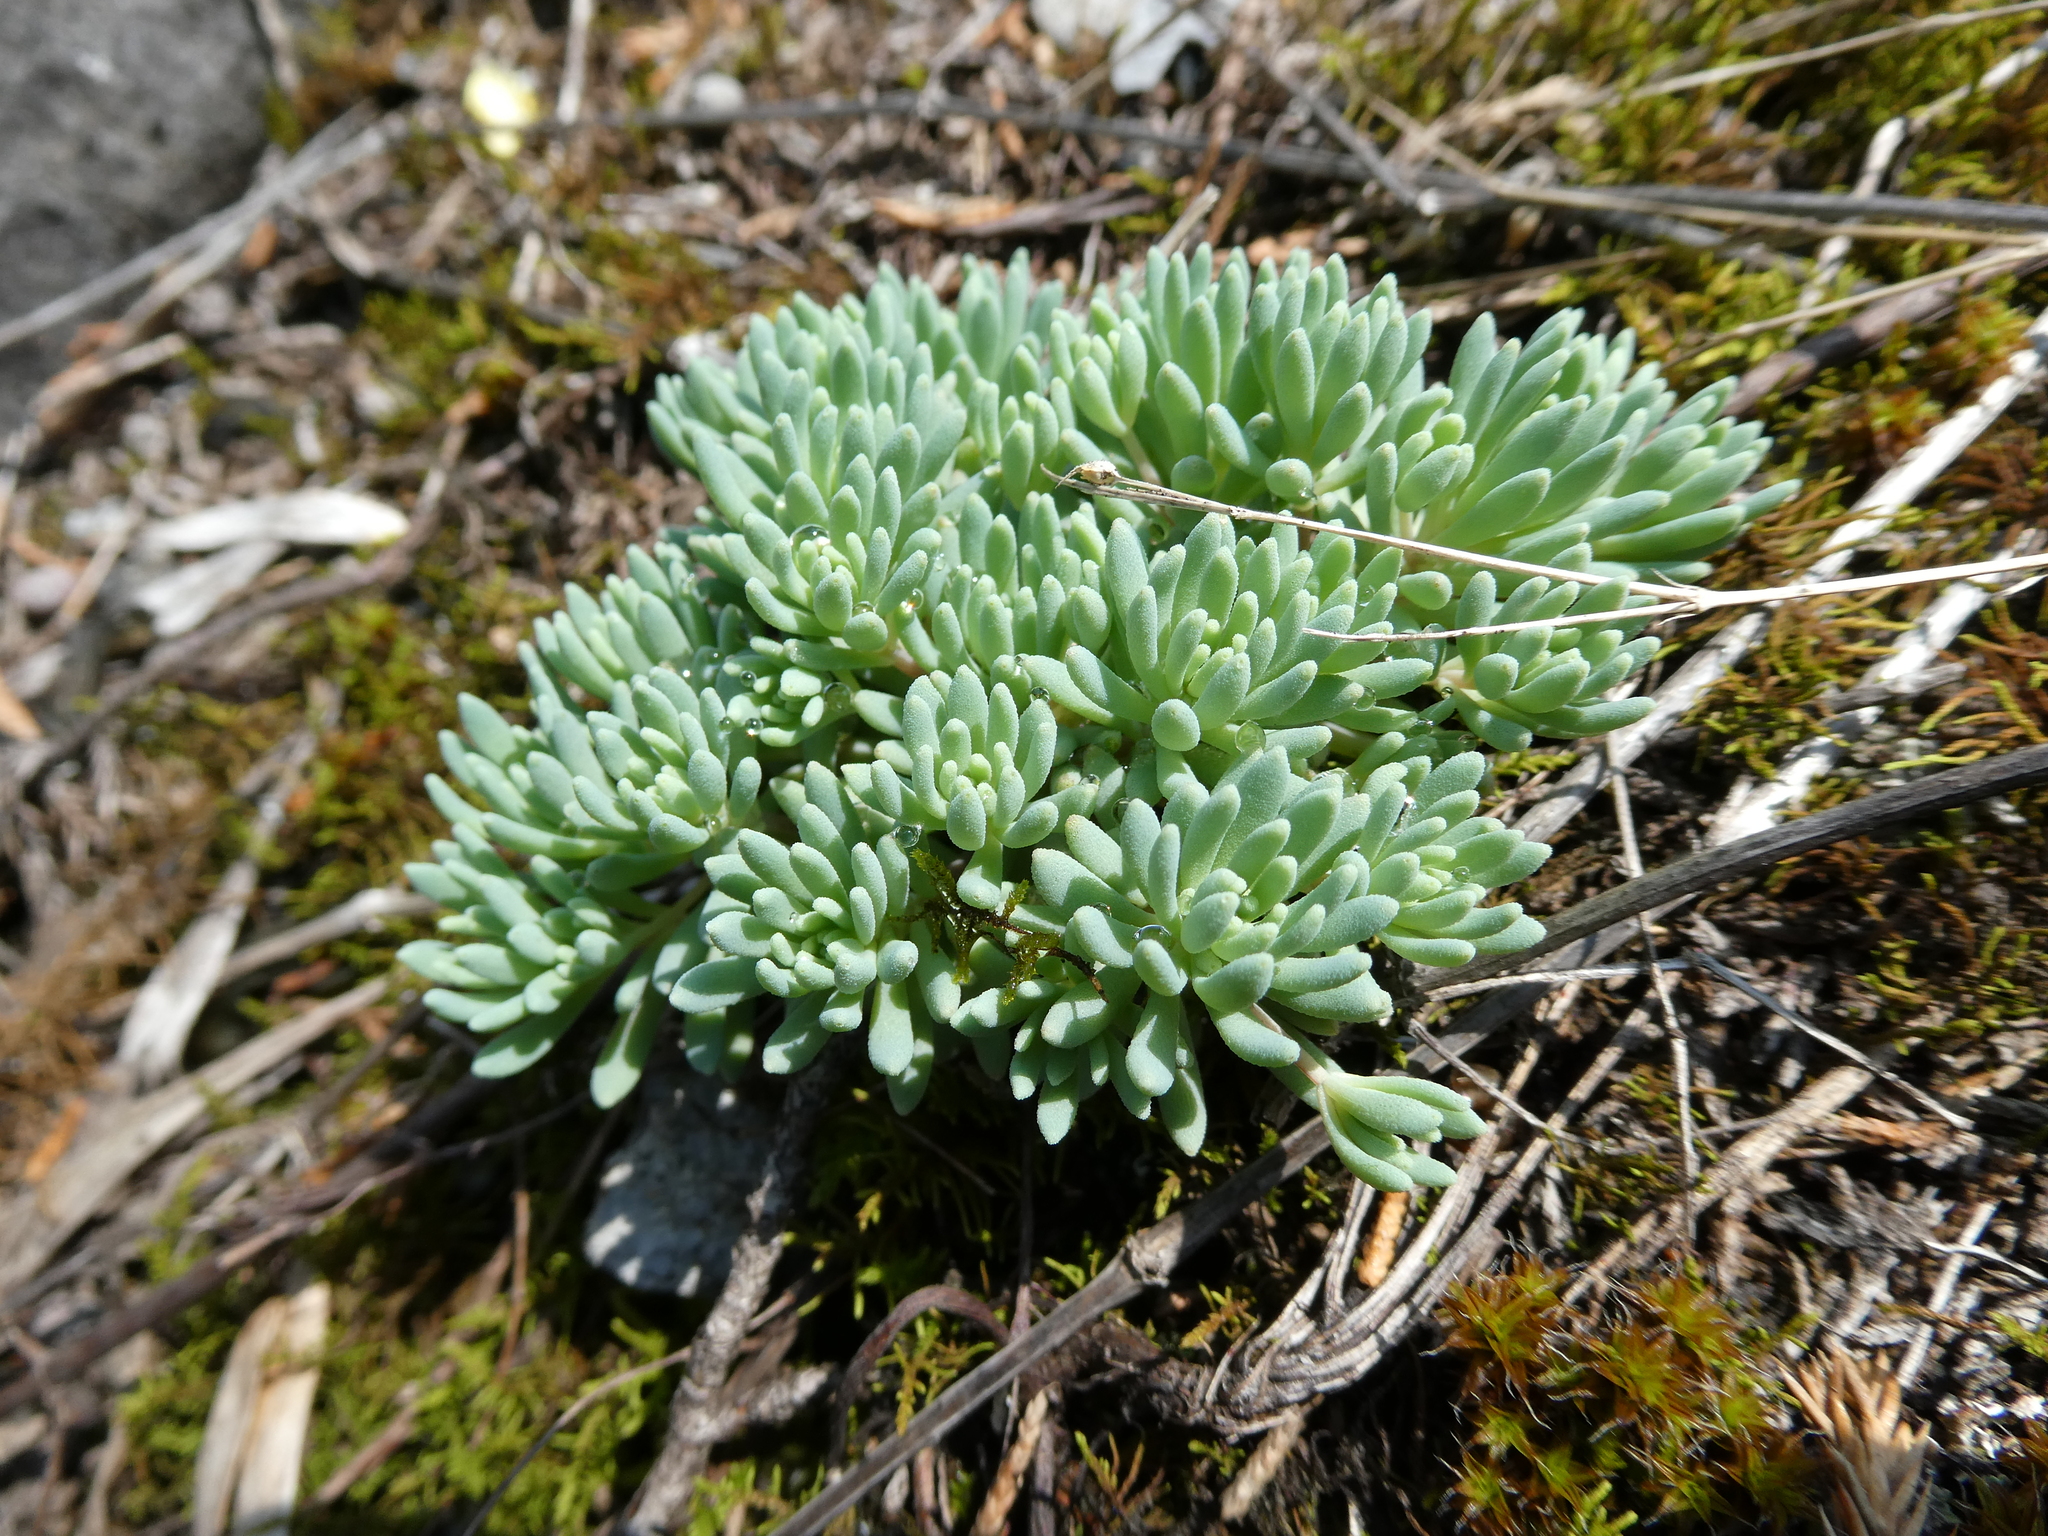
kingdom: Plantae
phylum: Tracheophyta
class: Magnoliopsida
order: Saxifragales
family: Crassulaceae
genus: Sedum
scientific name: Sedum hispanicum
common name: Spanish stonecrop
